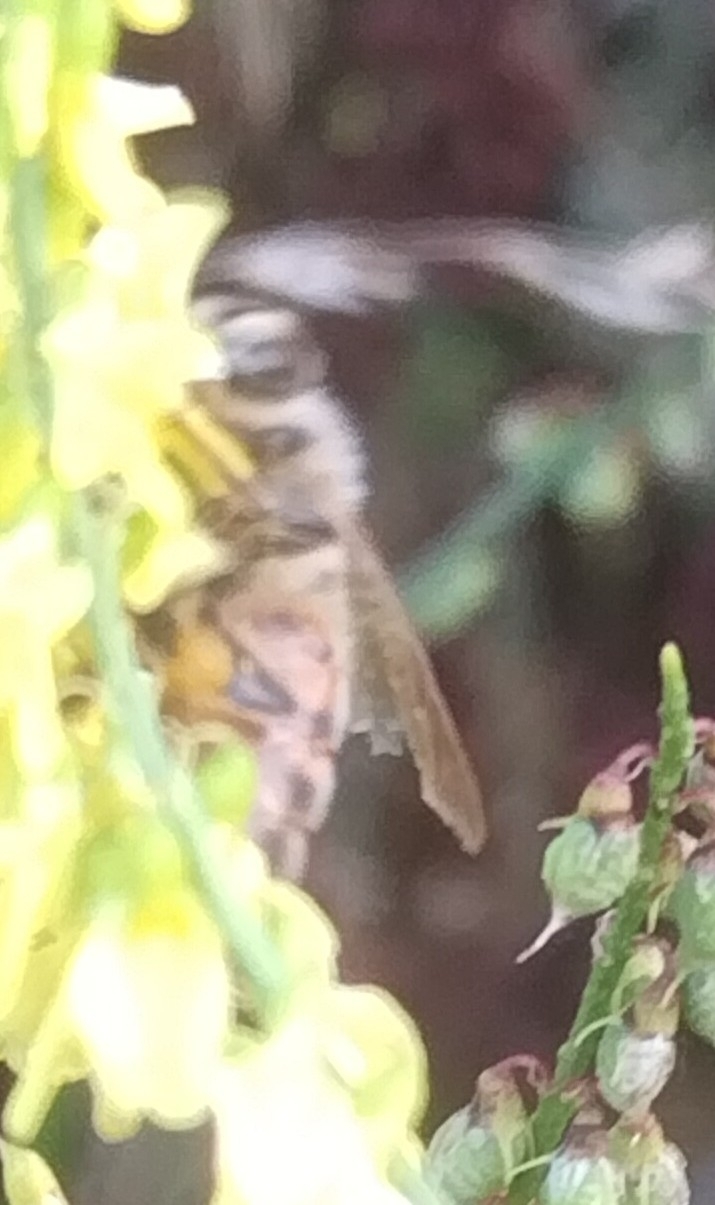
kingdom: Animalia
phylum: Arthropoda
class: Insecta
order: Hymenoptera
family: Apidae
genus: Apis
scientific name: Apis mellifera
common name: Honey bee
